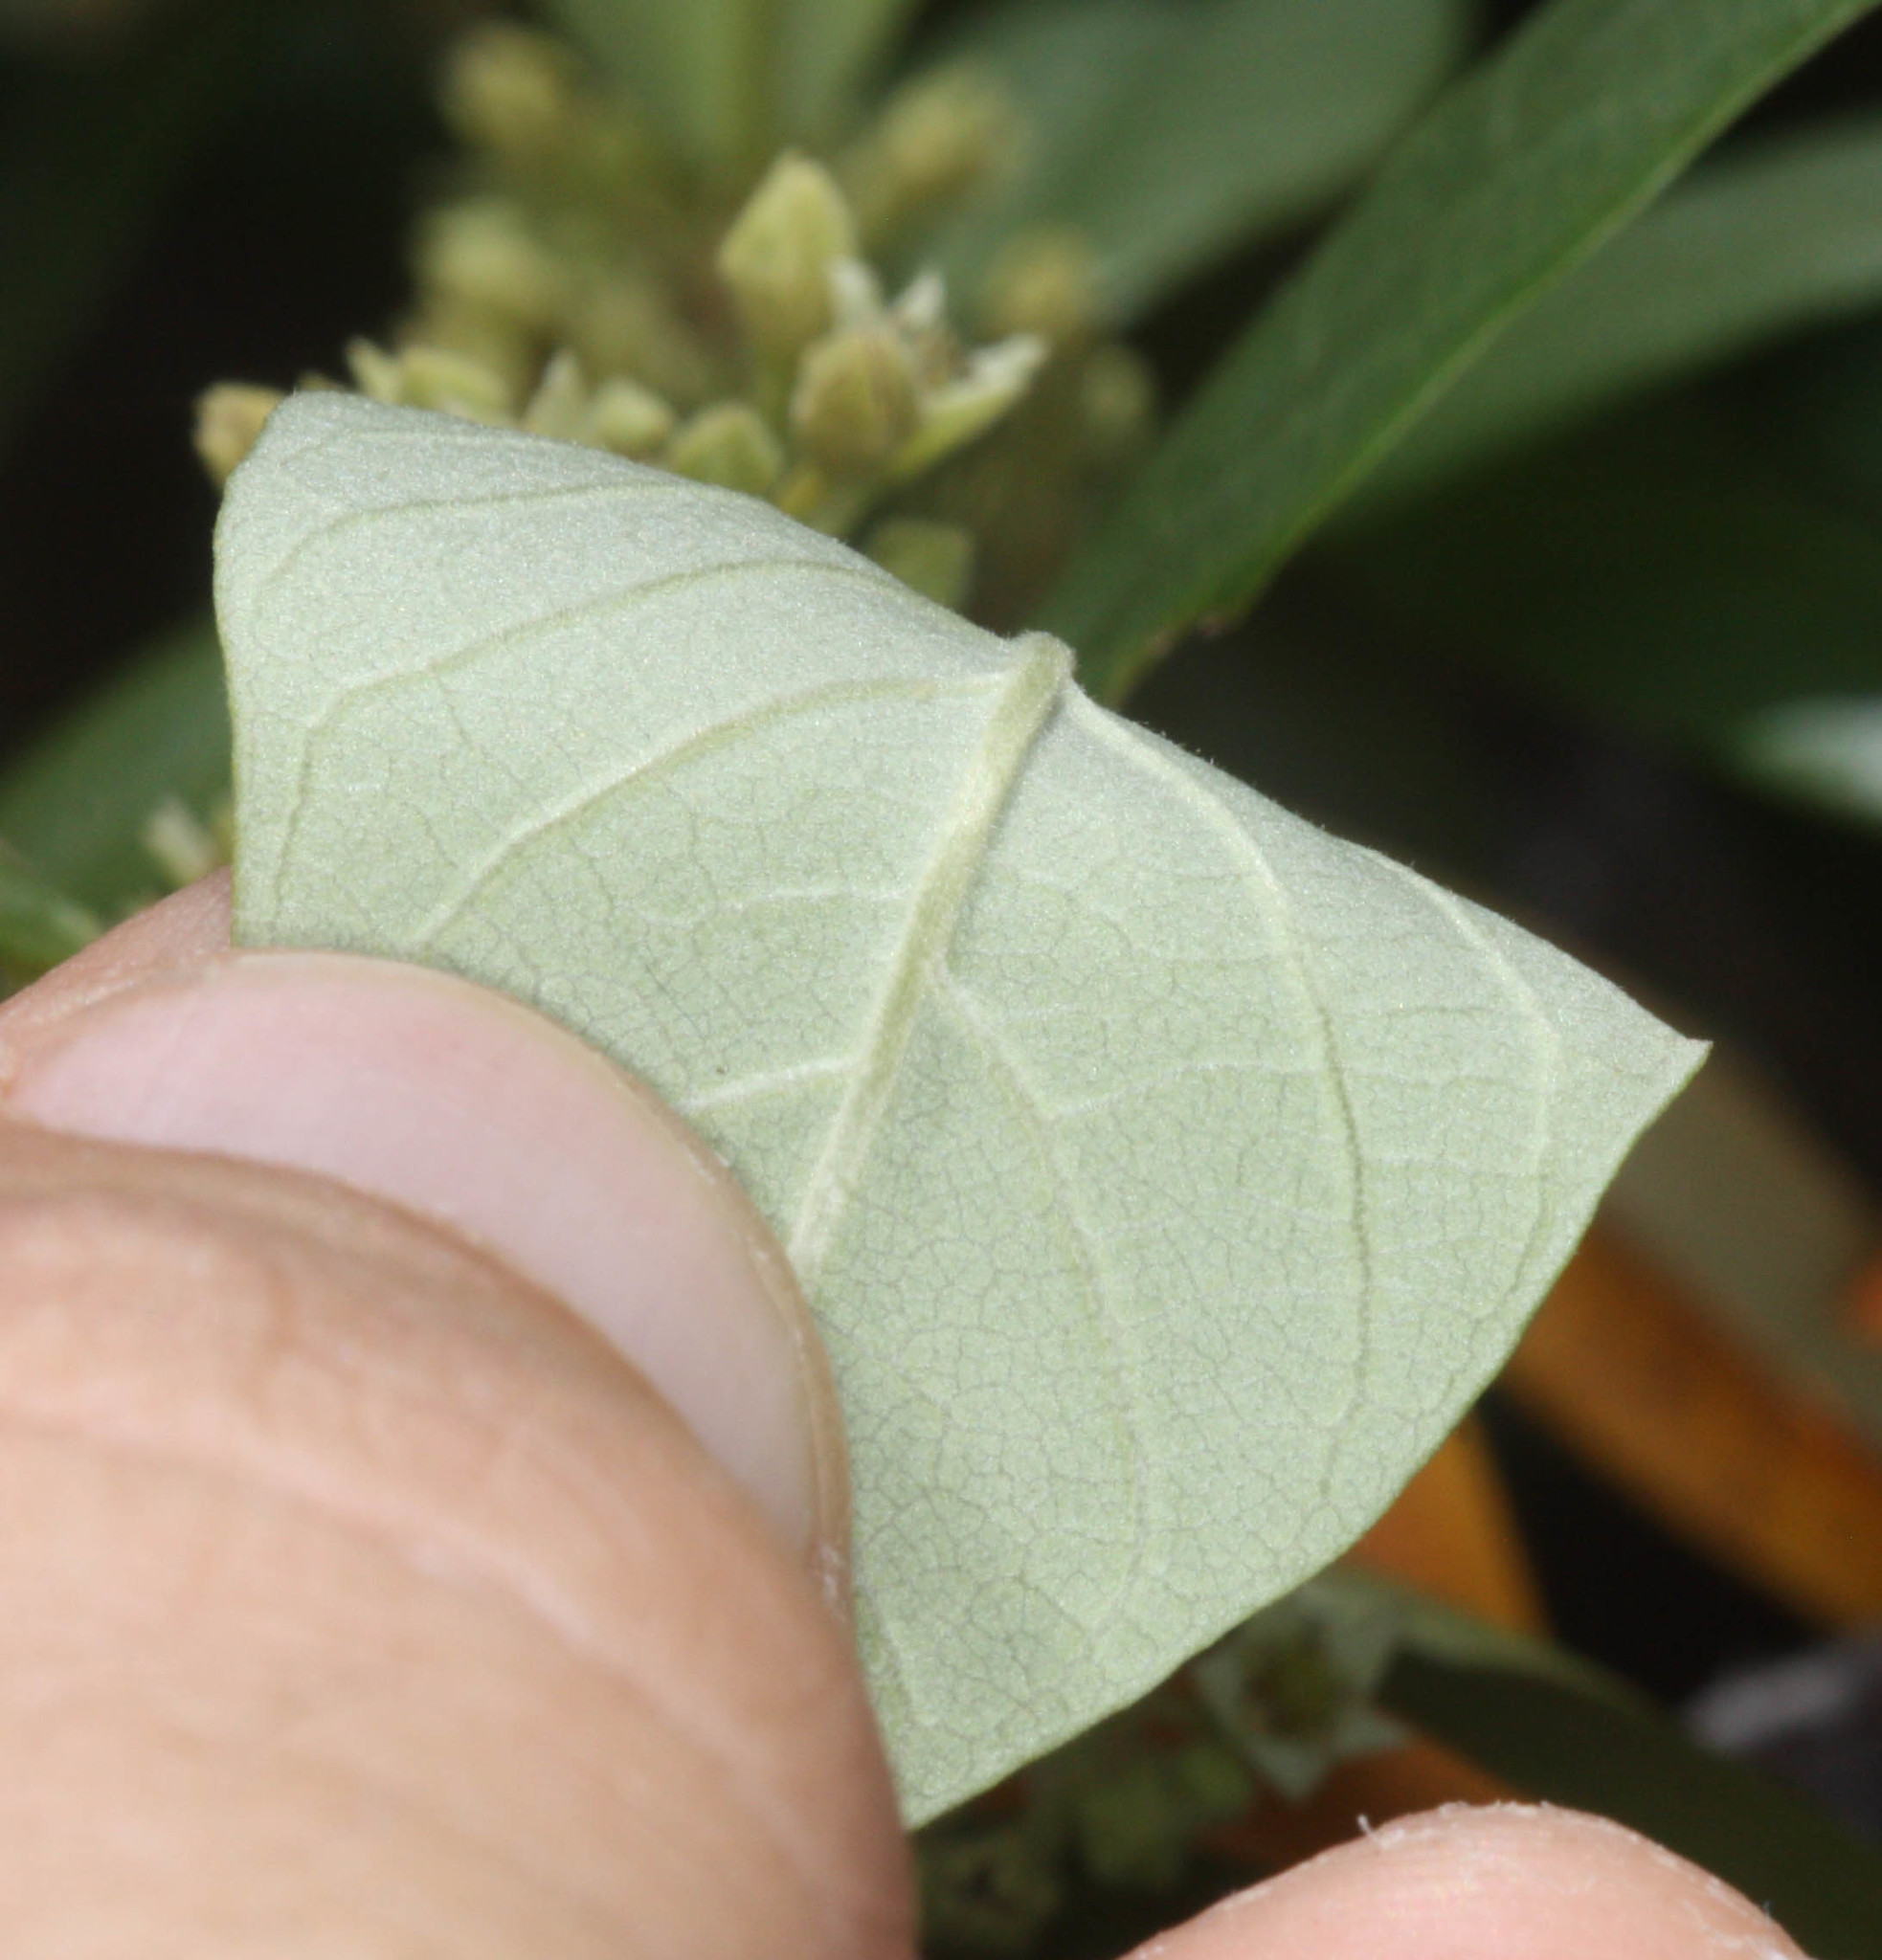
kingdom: Plantae
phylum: Tracheophyta
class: Magnoliopsida
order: Rosales
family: Rhamnaceae
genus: Frangula
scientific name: Frangula californica
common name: California buckthorn
